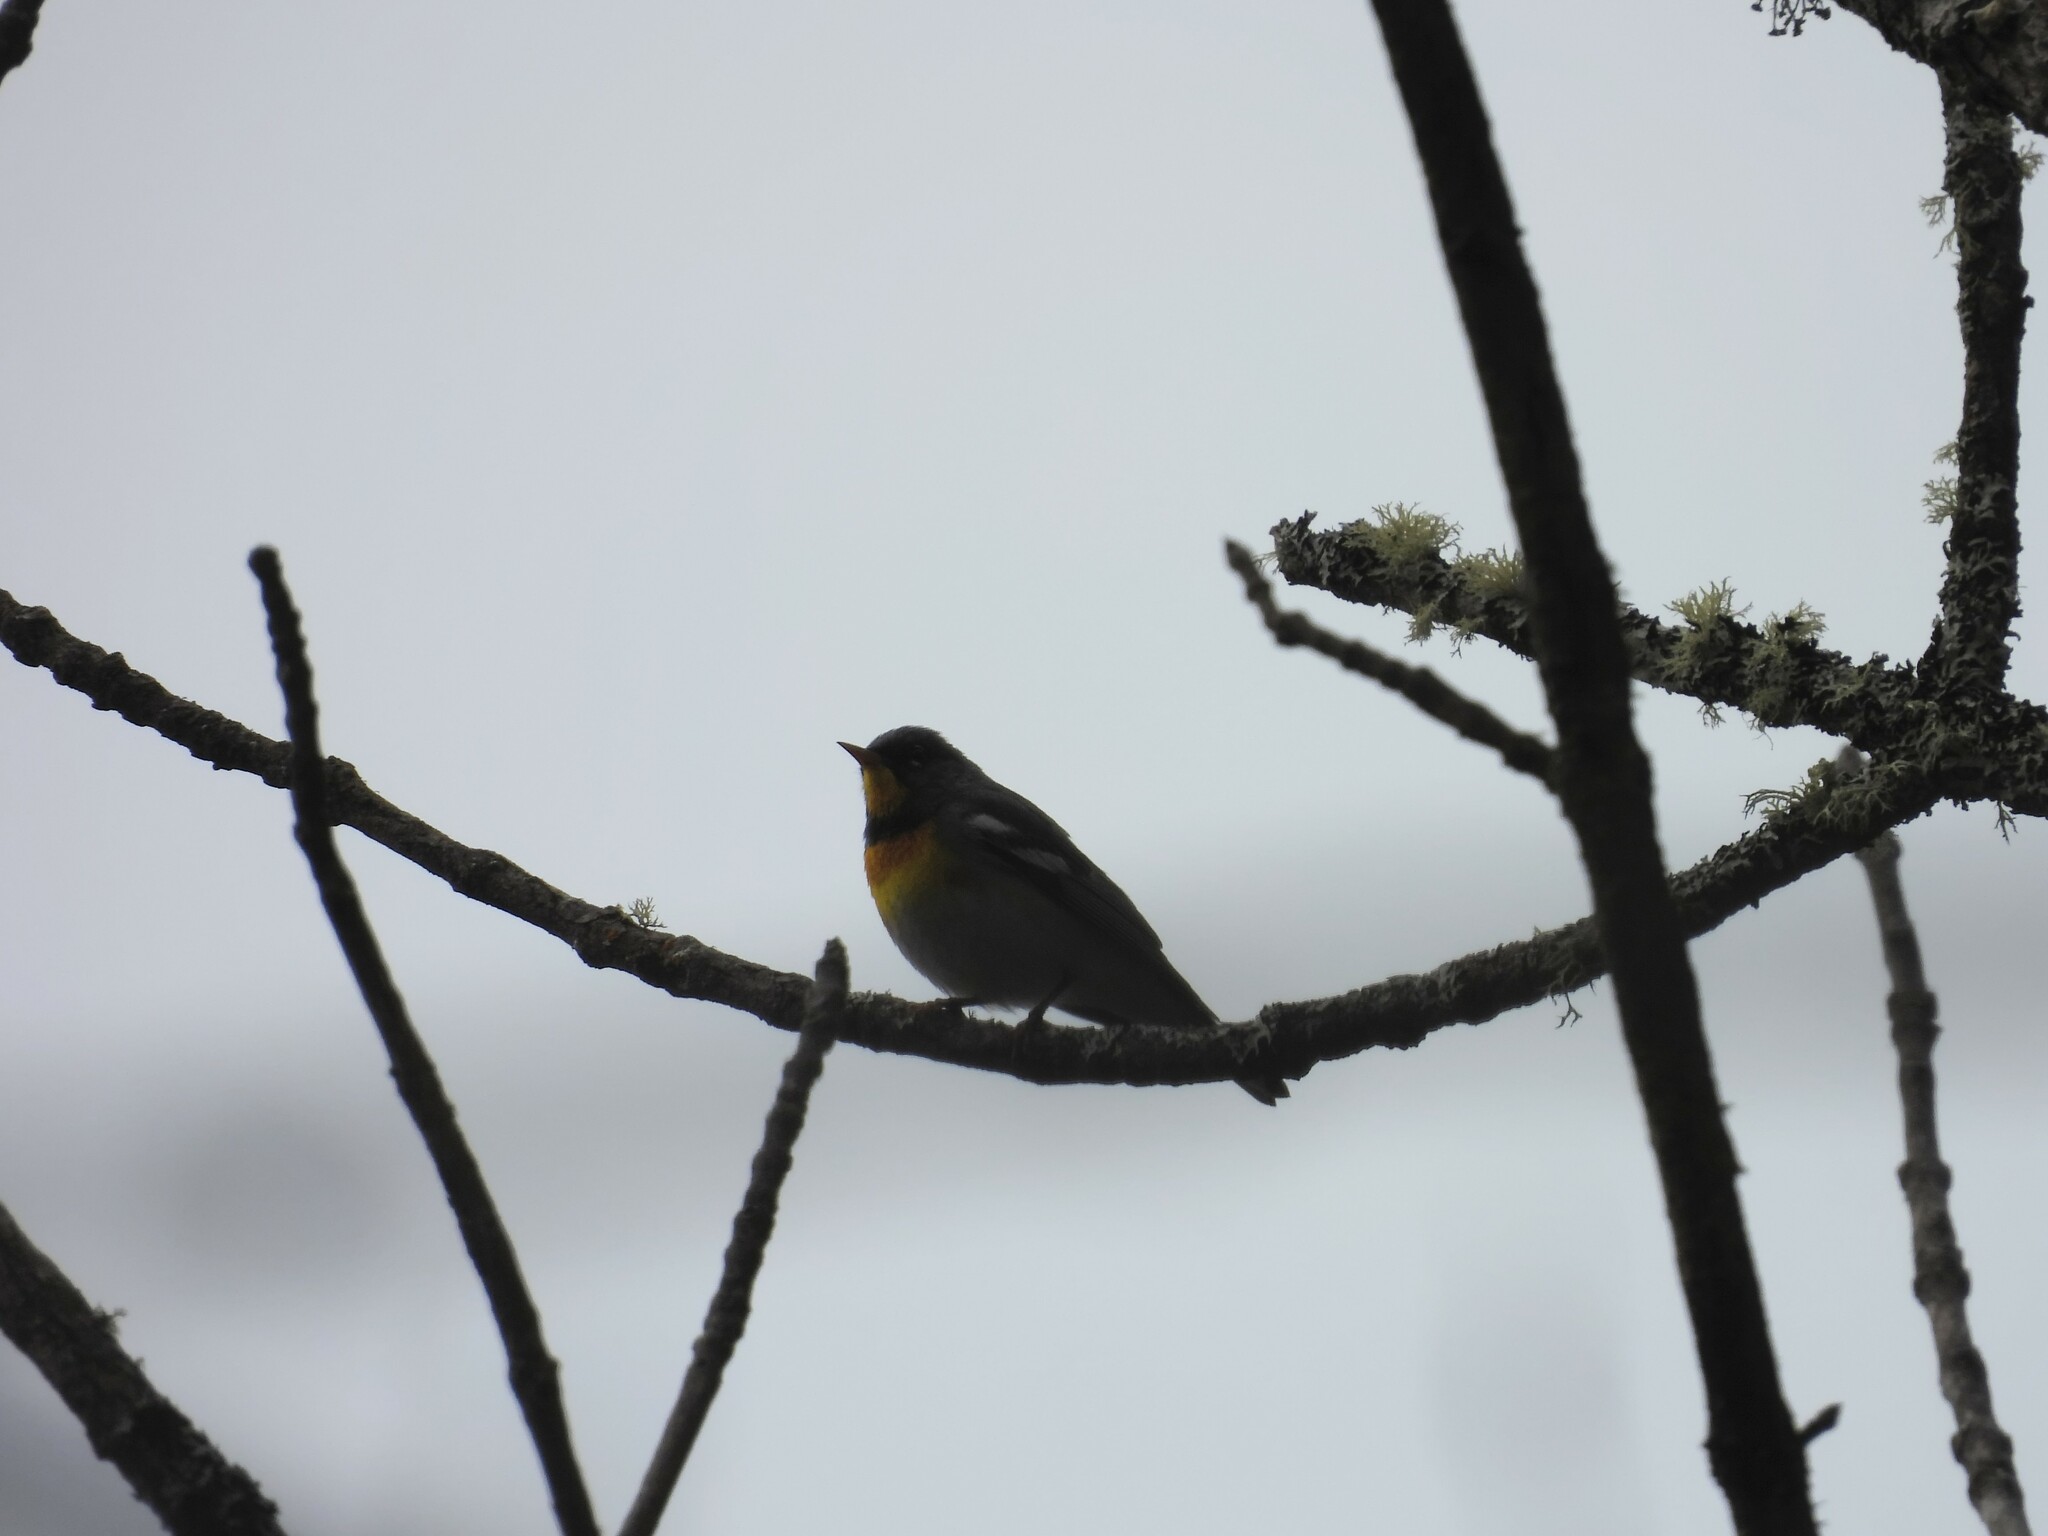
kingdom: Animalia
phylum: Chordata
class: Aves
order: Passeriformes
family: Parulidae
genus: Setophaga
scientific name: Setophaga americana
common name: Northern parula
